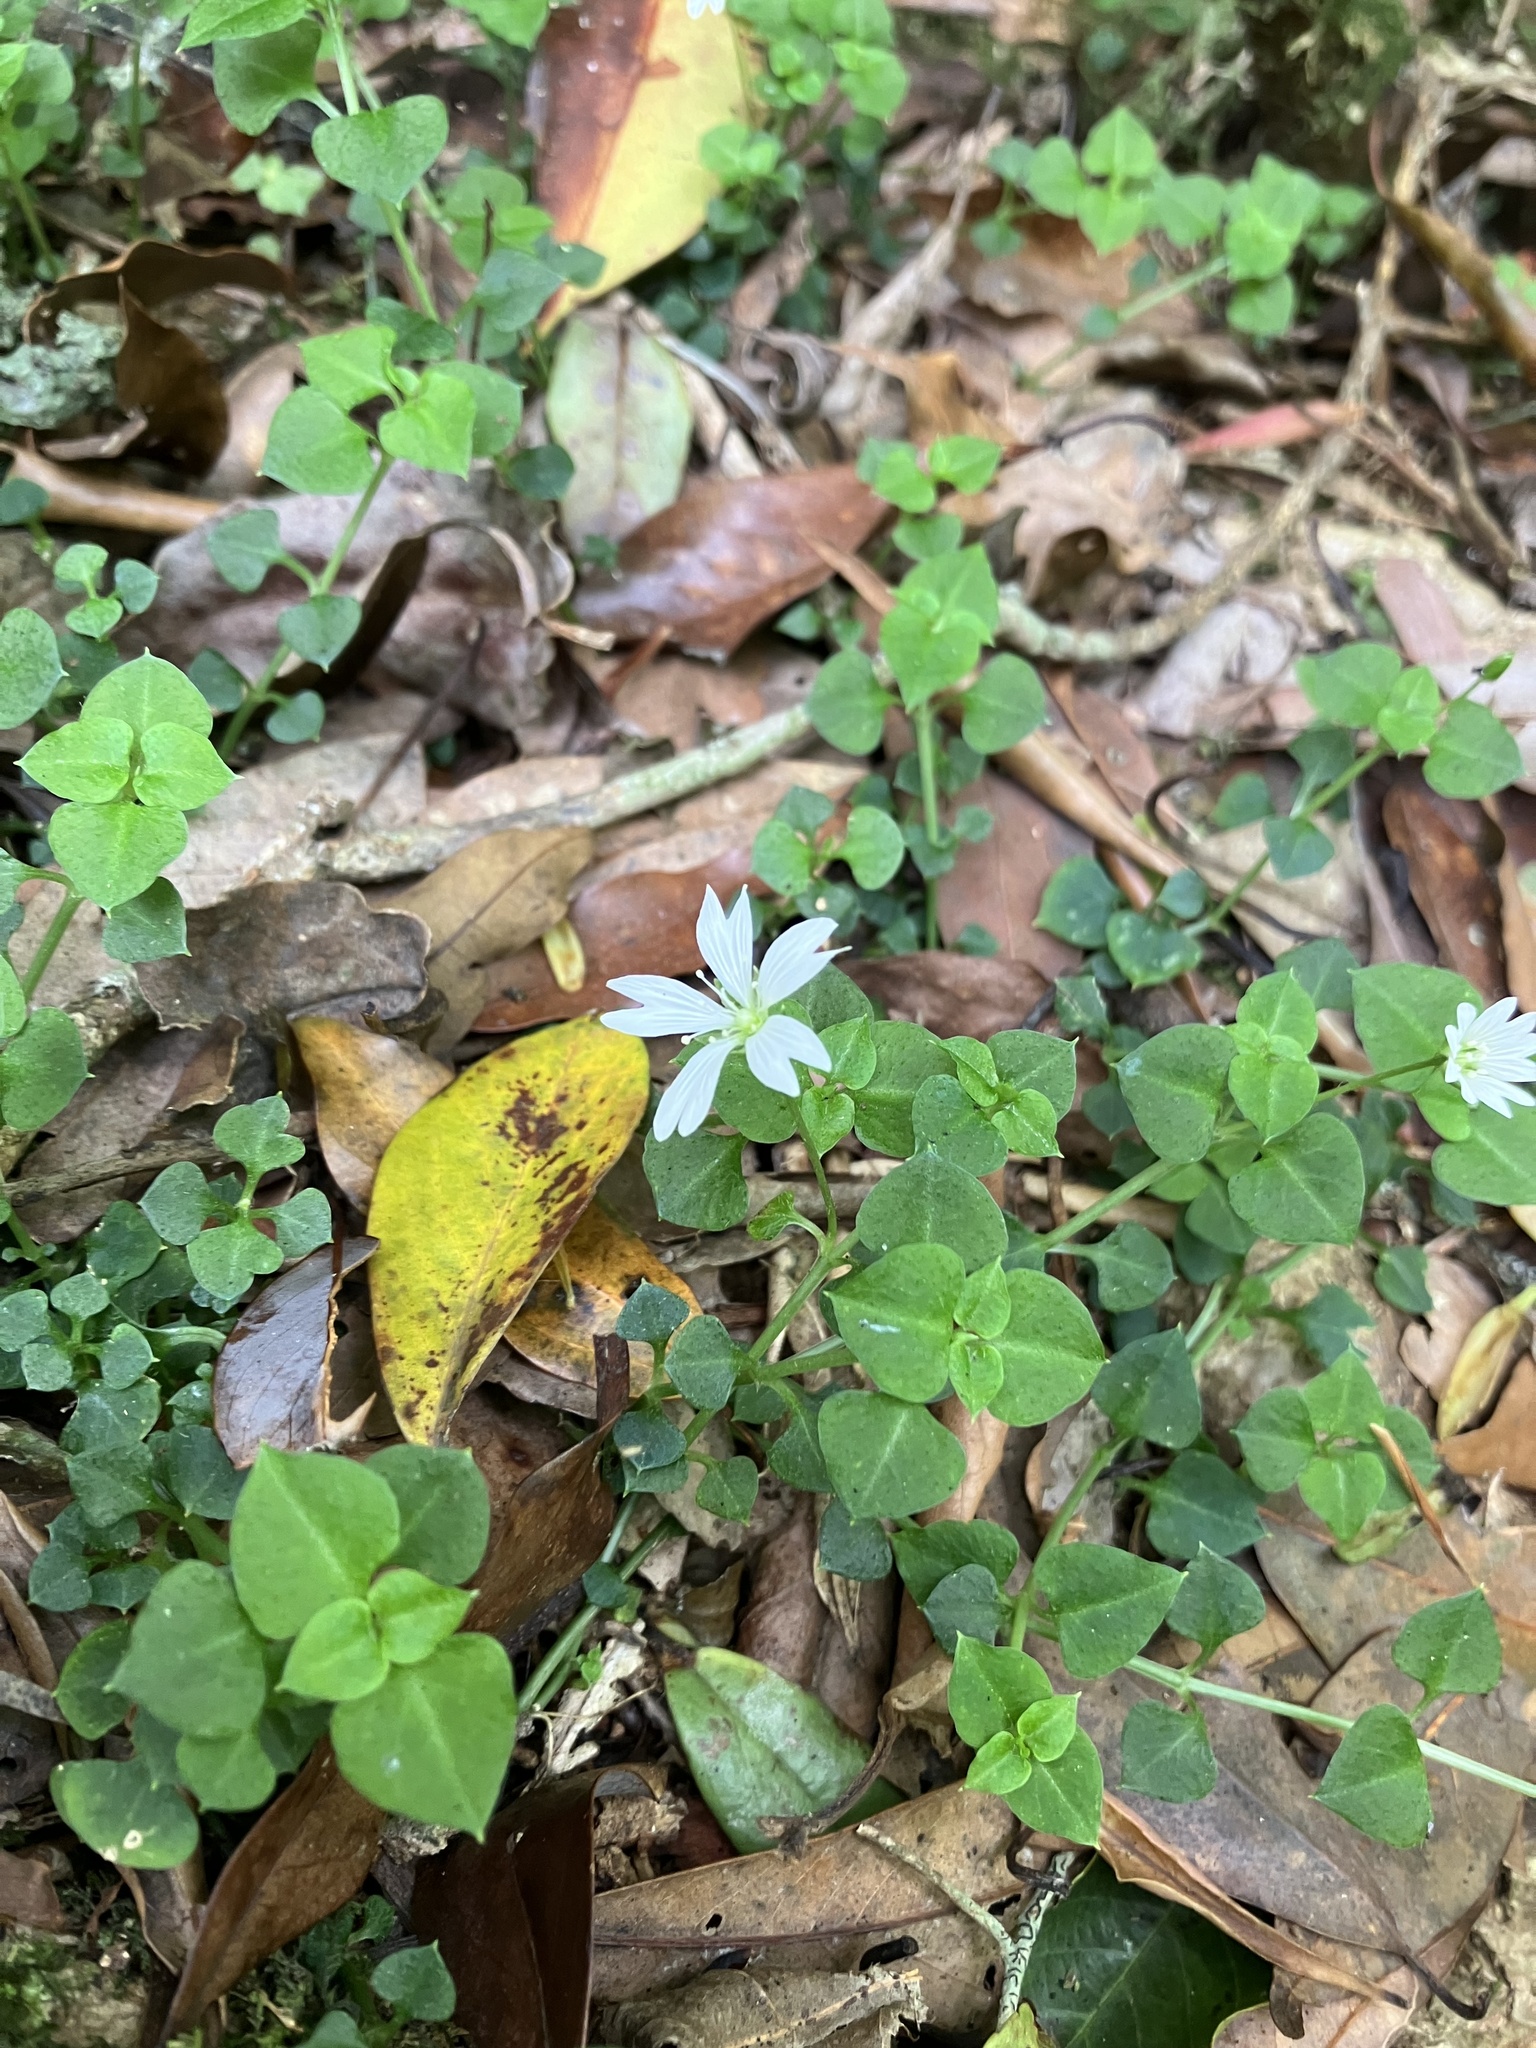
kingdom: Plantae
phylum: Tracheophyta
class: Magnoliopsida
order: Caryophyllales
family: Caryophyllaceae
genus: Nubelaria
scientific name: Nubelaria arisanensis
